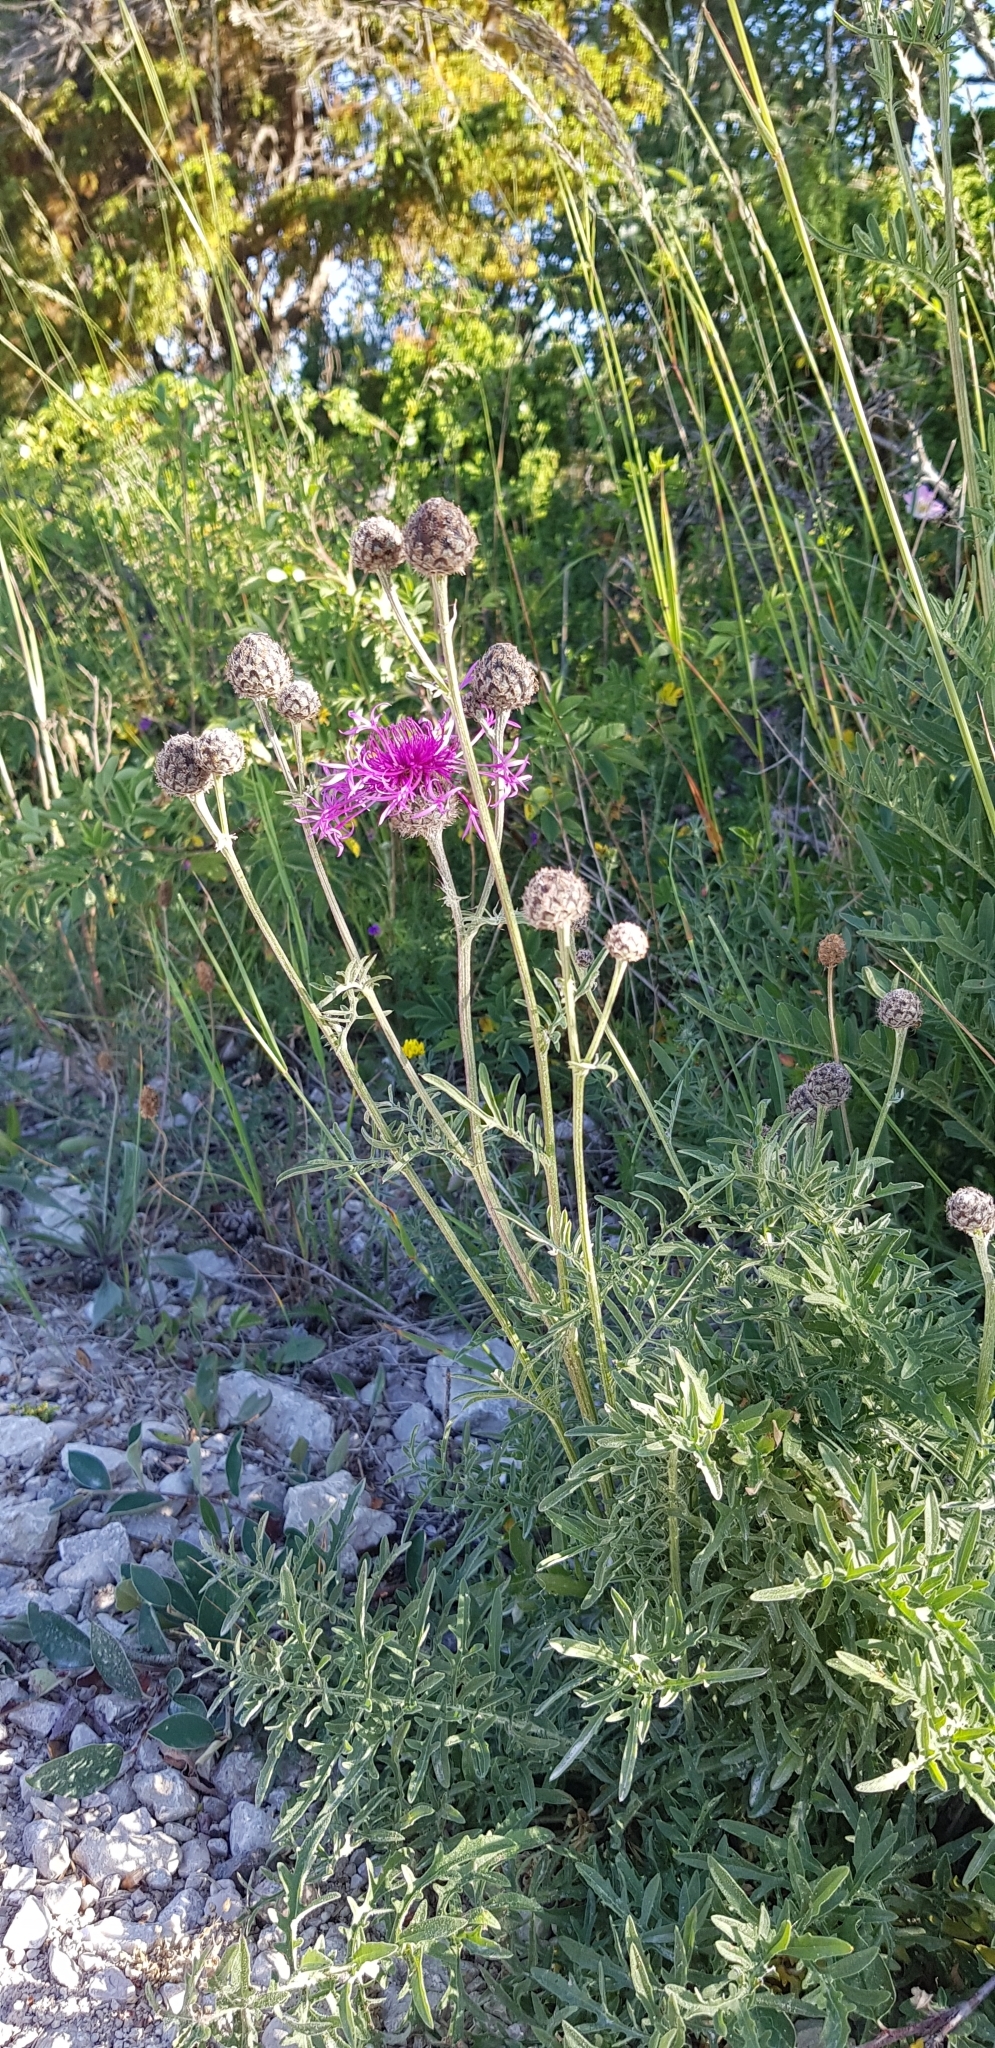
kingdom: Plantae
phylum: Tracheophyta
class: Magnoliopsida
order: Asterales
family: Asteraceae
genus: Centaurea
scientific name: Centaurea scabiosa
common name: Greater knapweed
